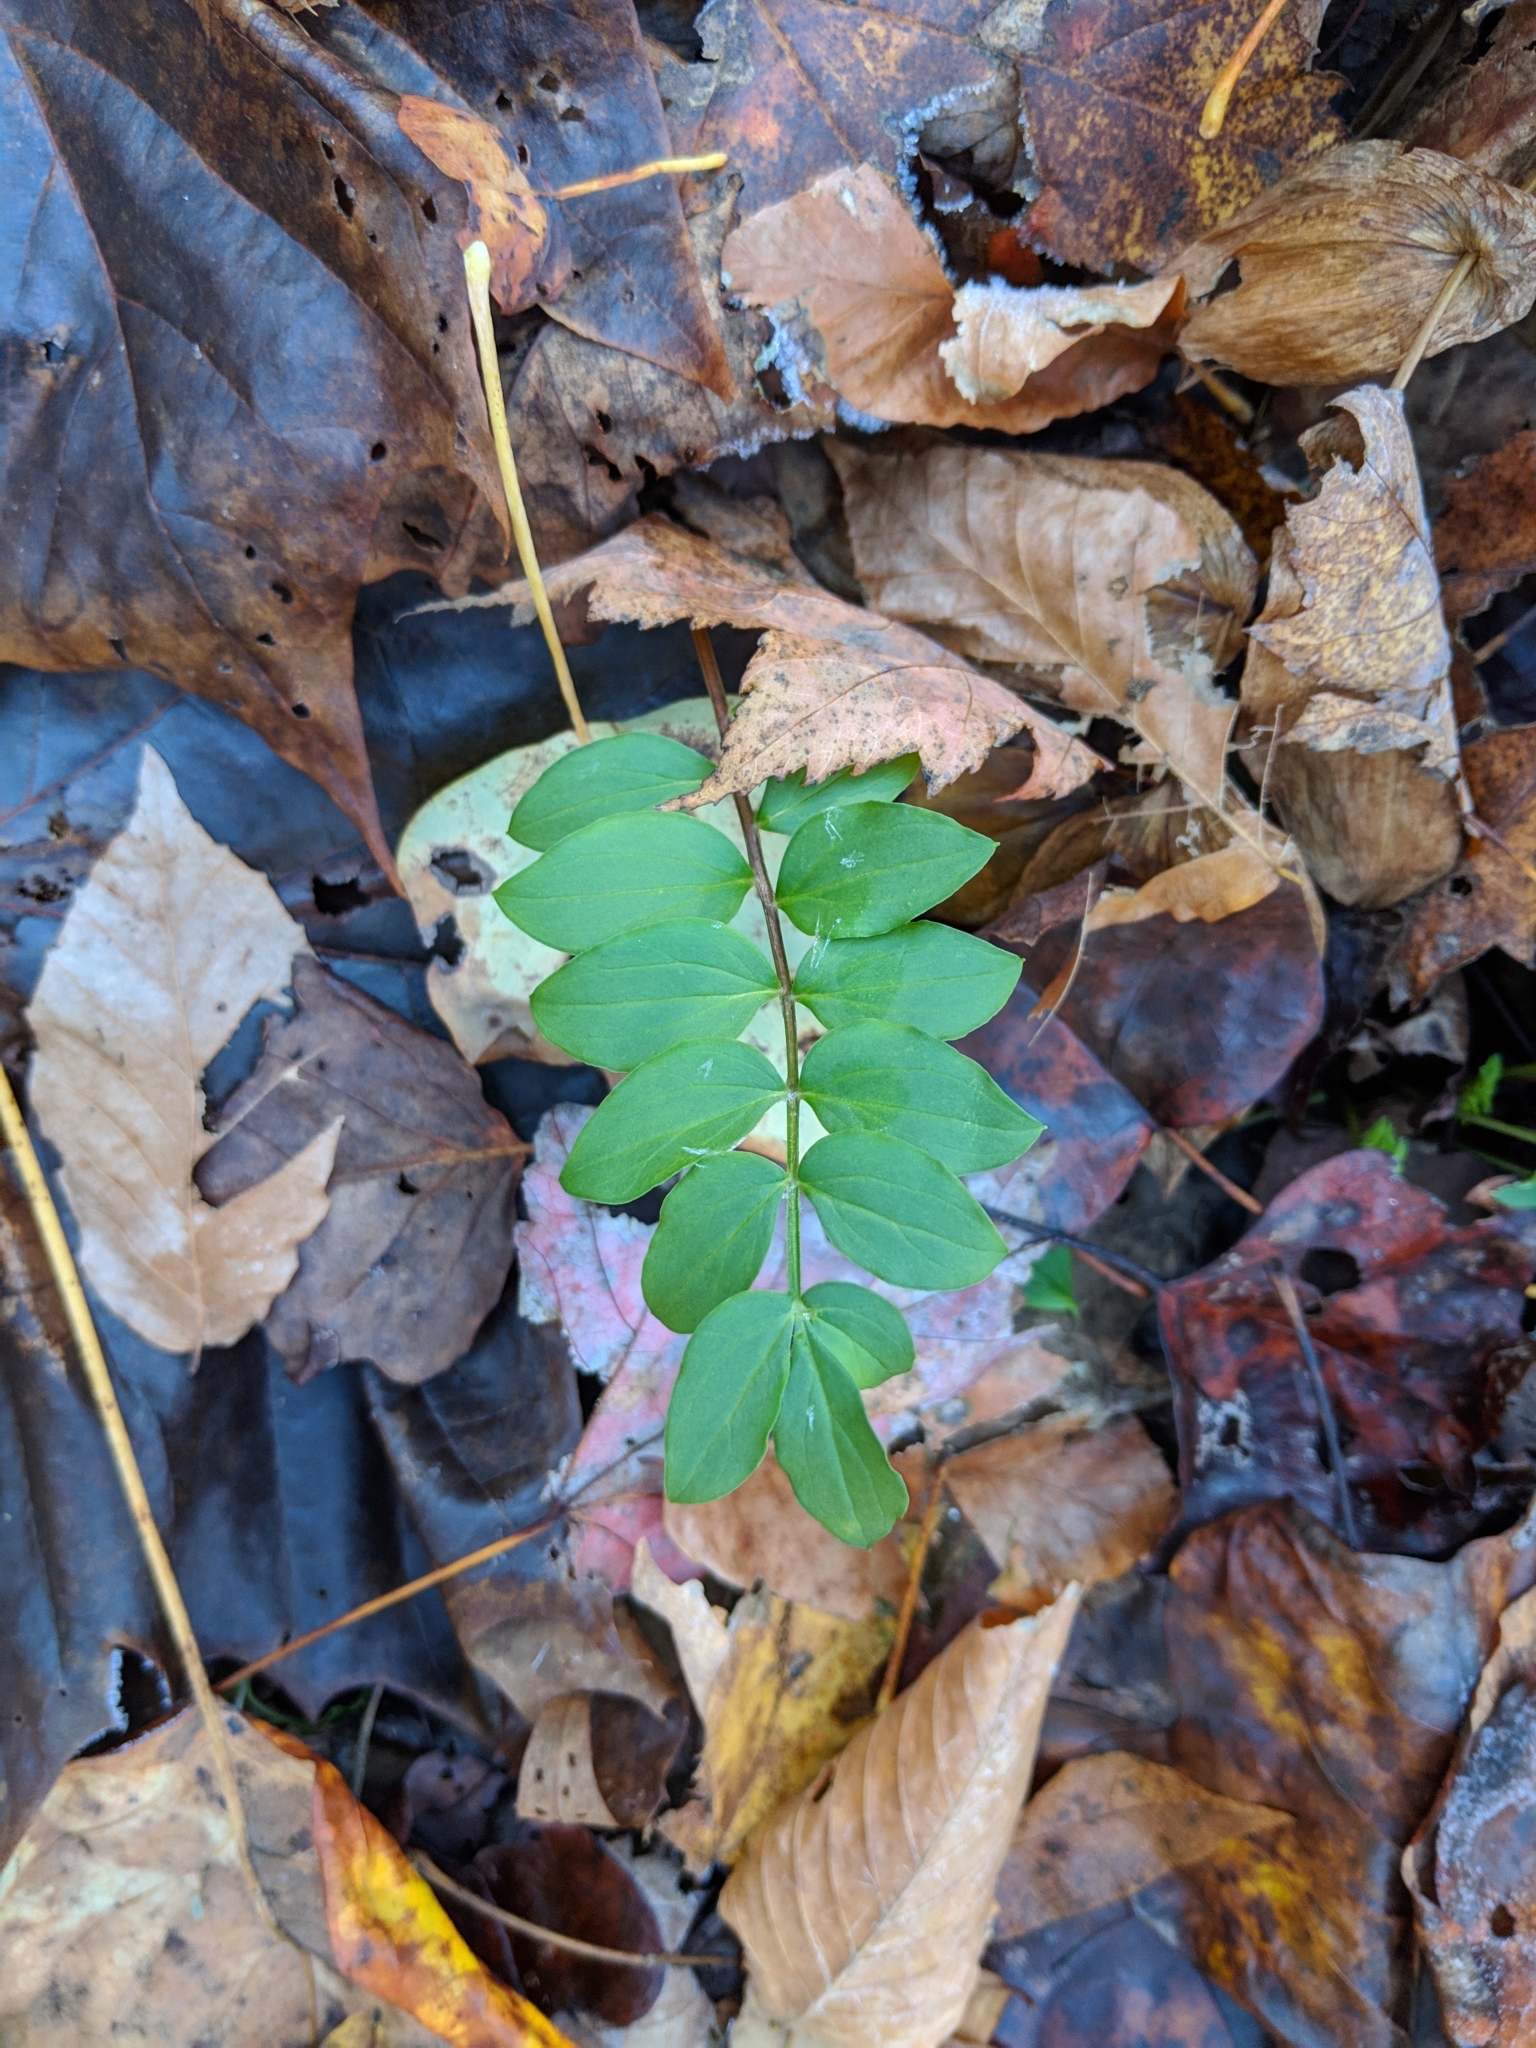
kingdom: Plantae
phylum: Tracheophyta
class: Magnoliopsida
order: Ericales
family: Polemoniaceae
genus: Polemonium
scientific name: Polemonium reptans
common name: Creeping jacob's-ladder
